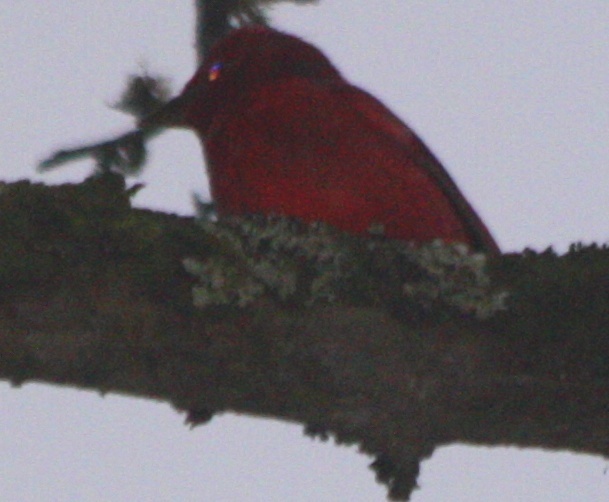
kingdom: Animalia
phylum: Chordata
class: Aves
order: Passeriformes
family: Cardinalidae
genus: Piranga
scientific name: Piranga rubra
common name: Summer tanager
